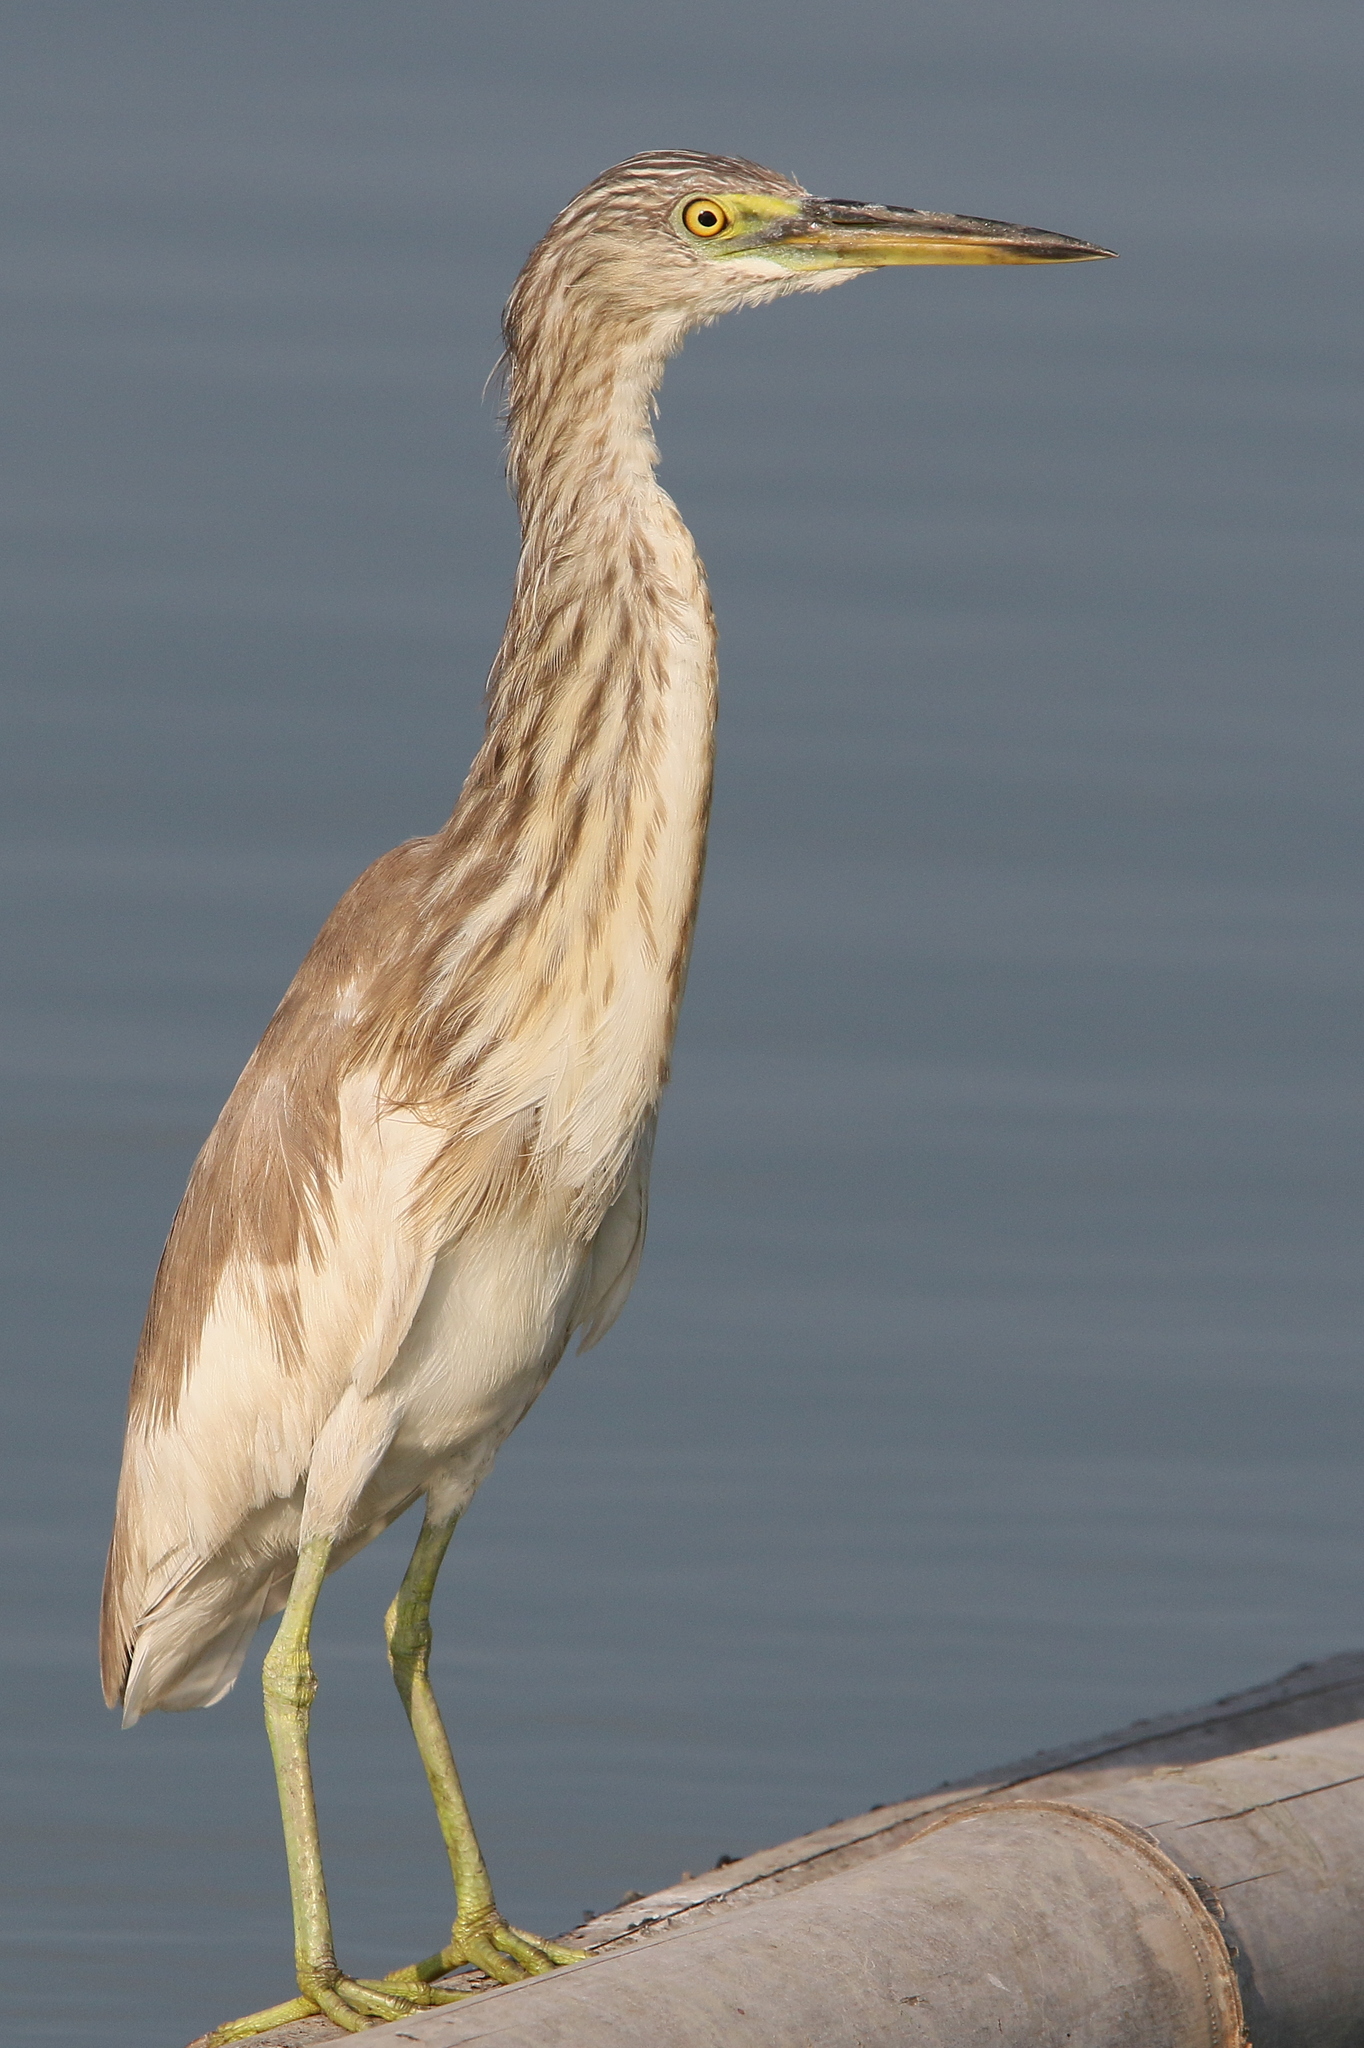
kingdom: Animalia
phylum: Chordata
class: Aves
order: Pelecaniformes
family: Ardeidae
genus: Ardeola
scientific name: Ardeola
